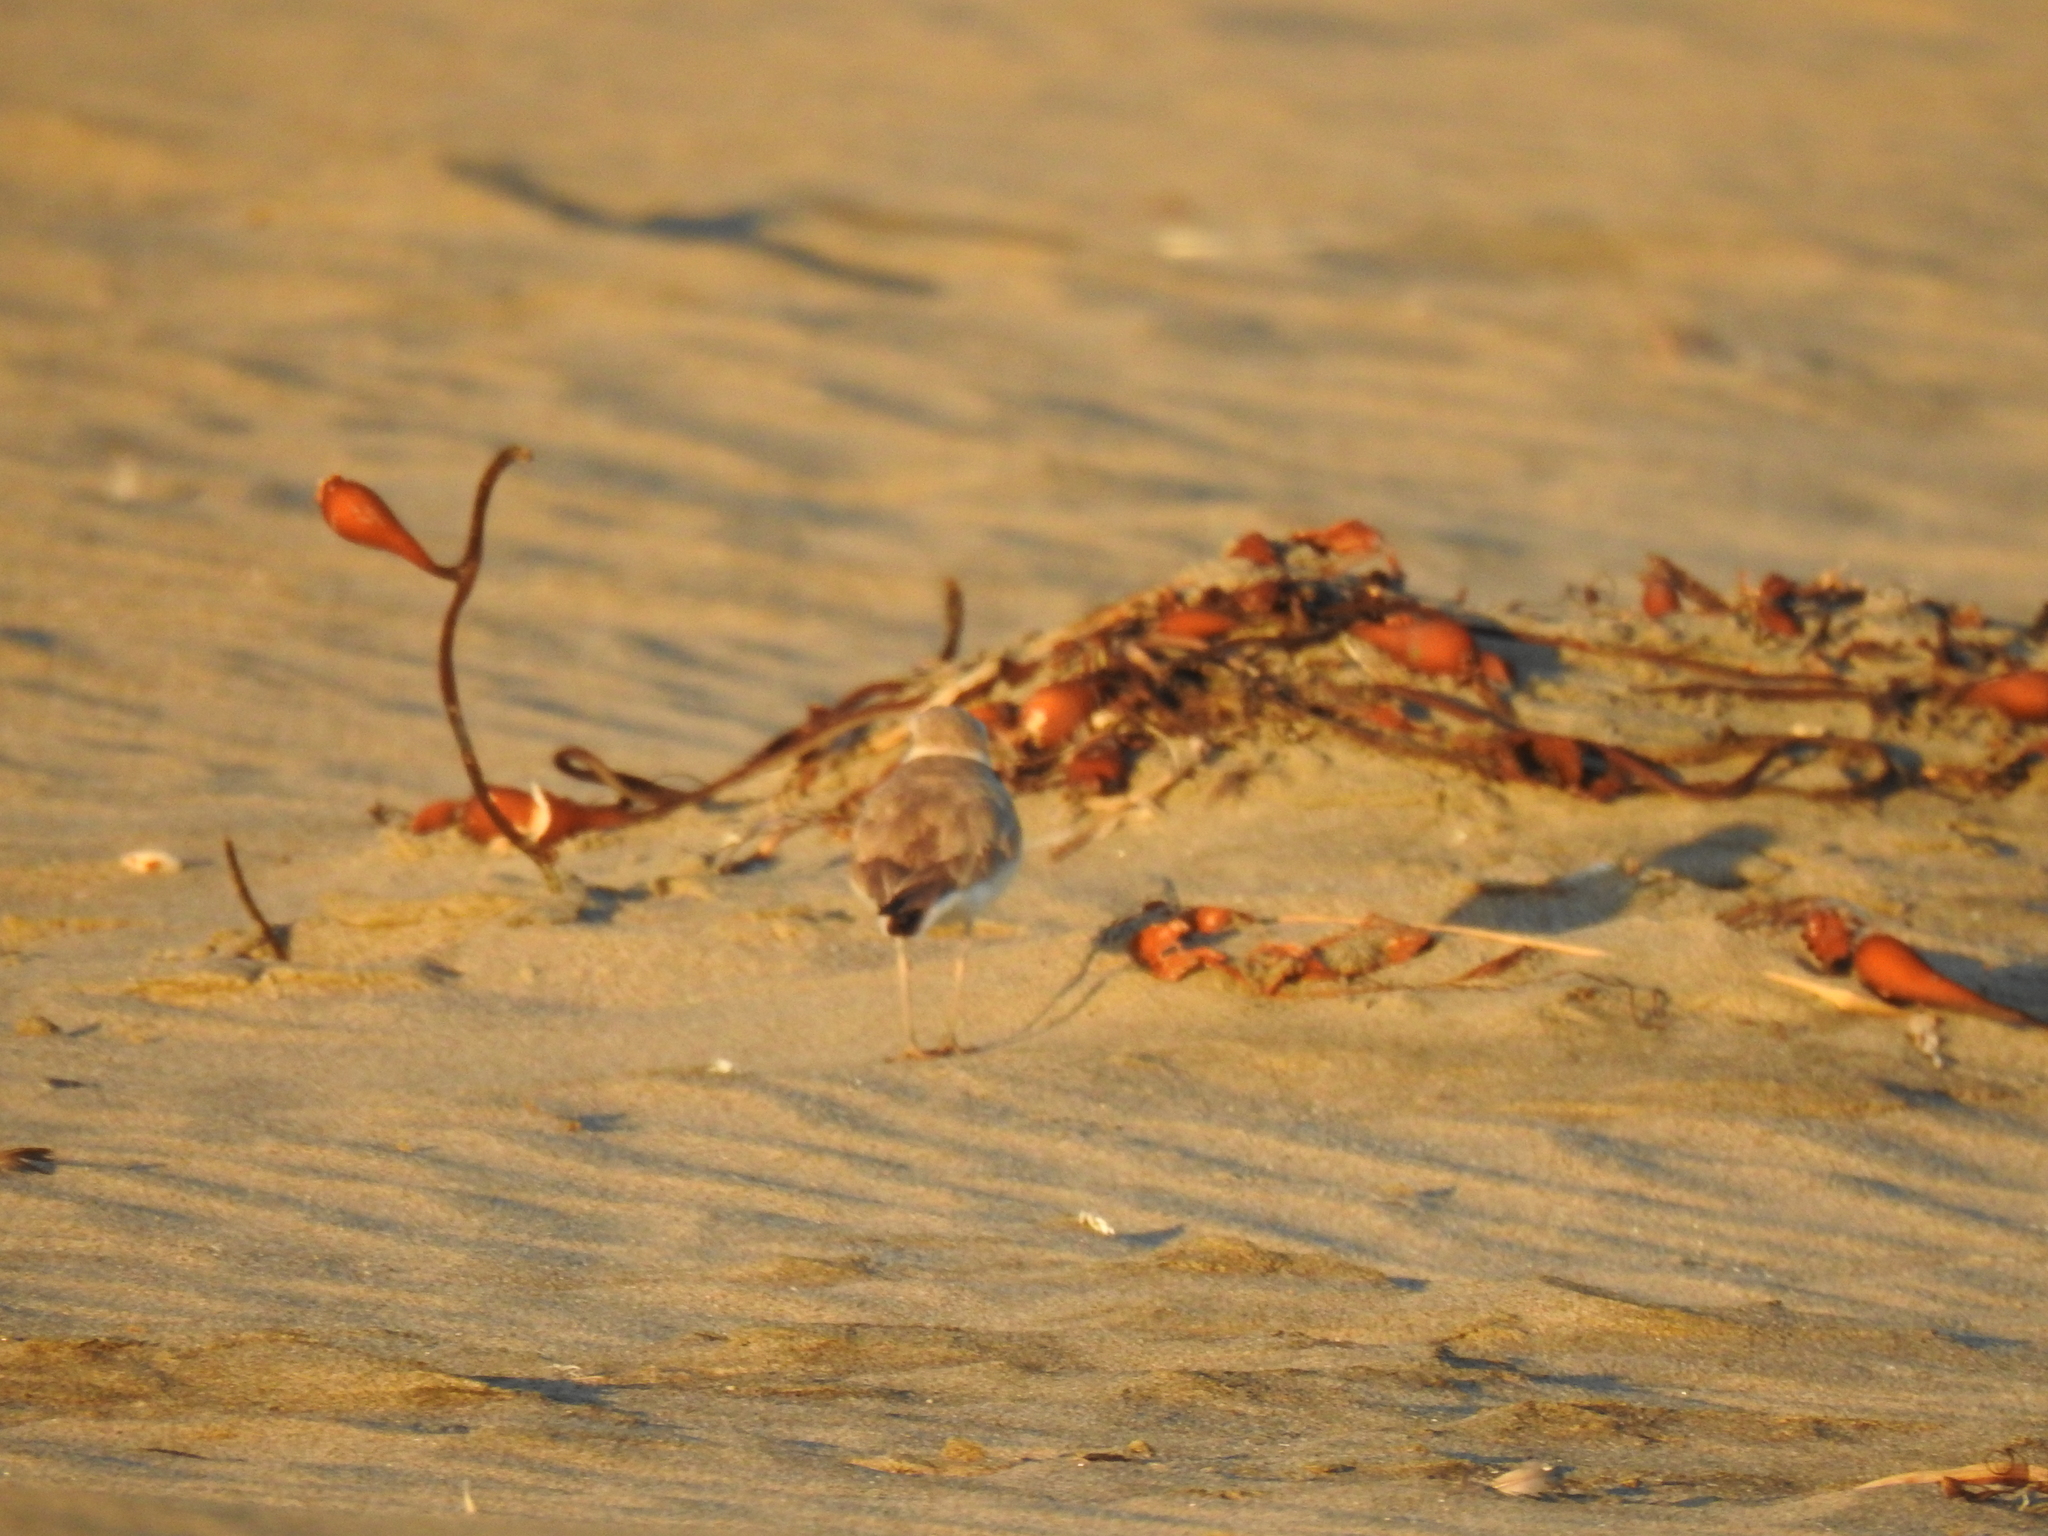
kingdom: Animalia
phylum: Chordata
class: Aves
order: Charadriiformes
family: Charadriidae
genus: Anarhynchus
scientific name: Anarhynchus
